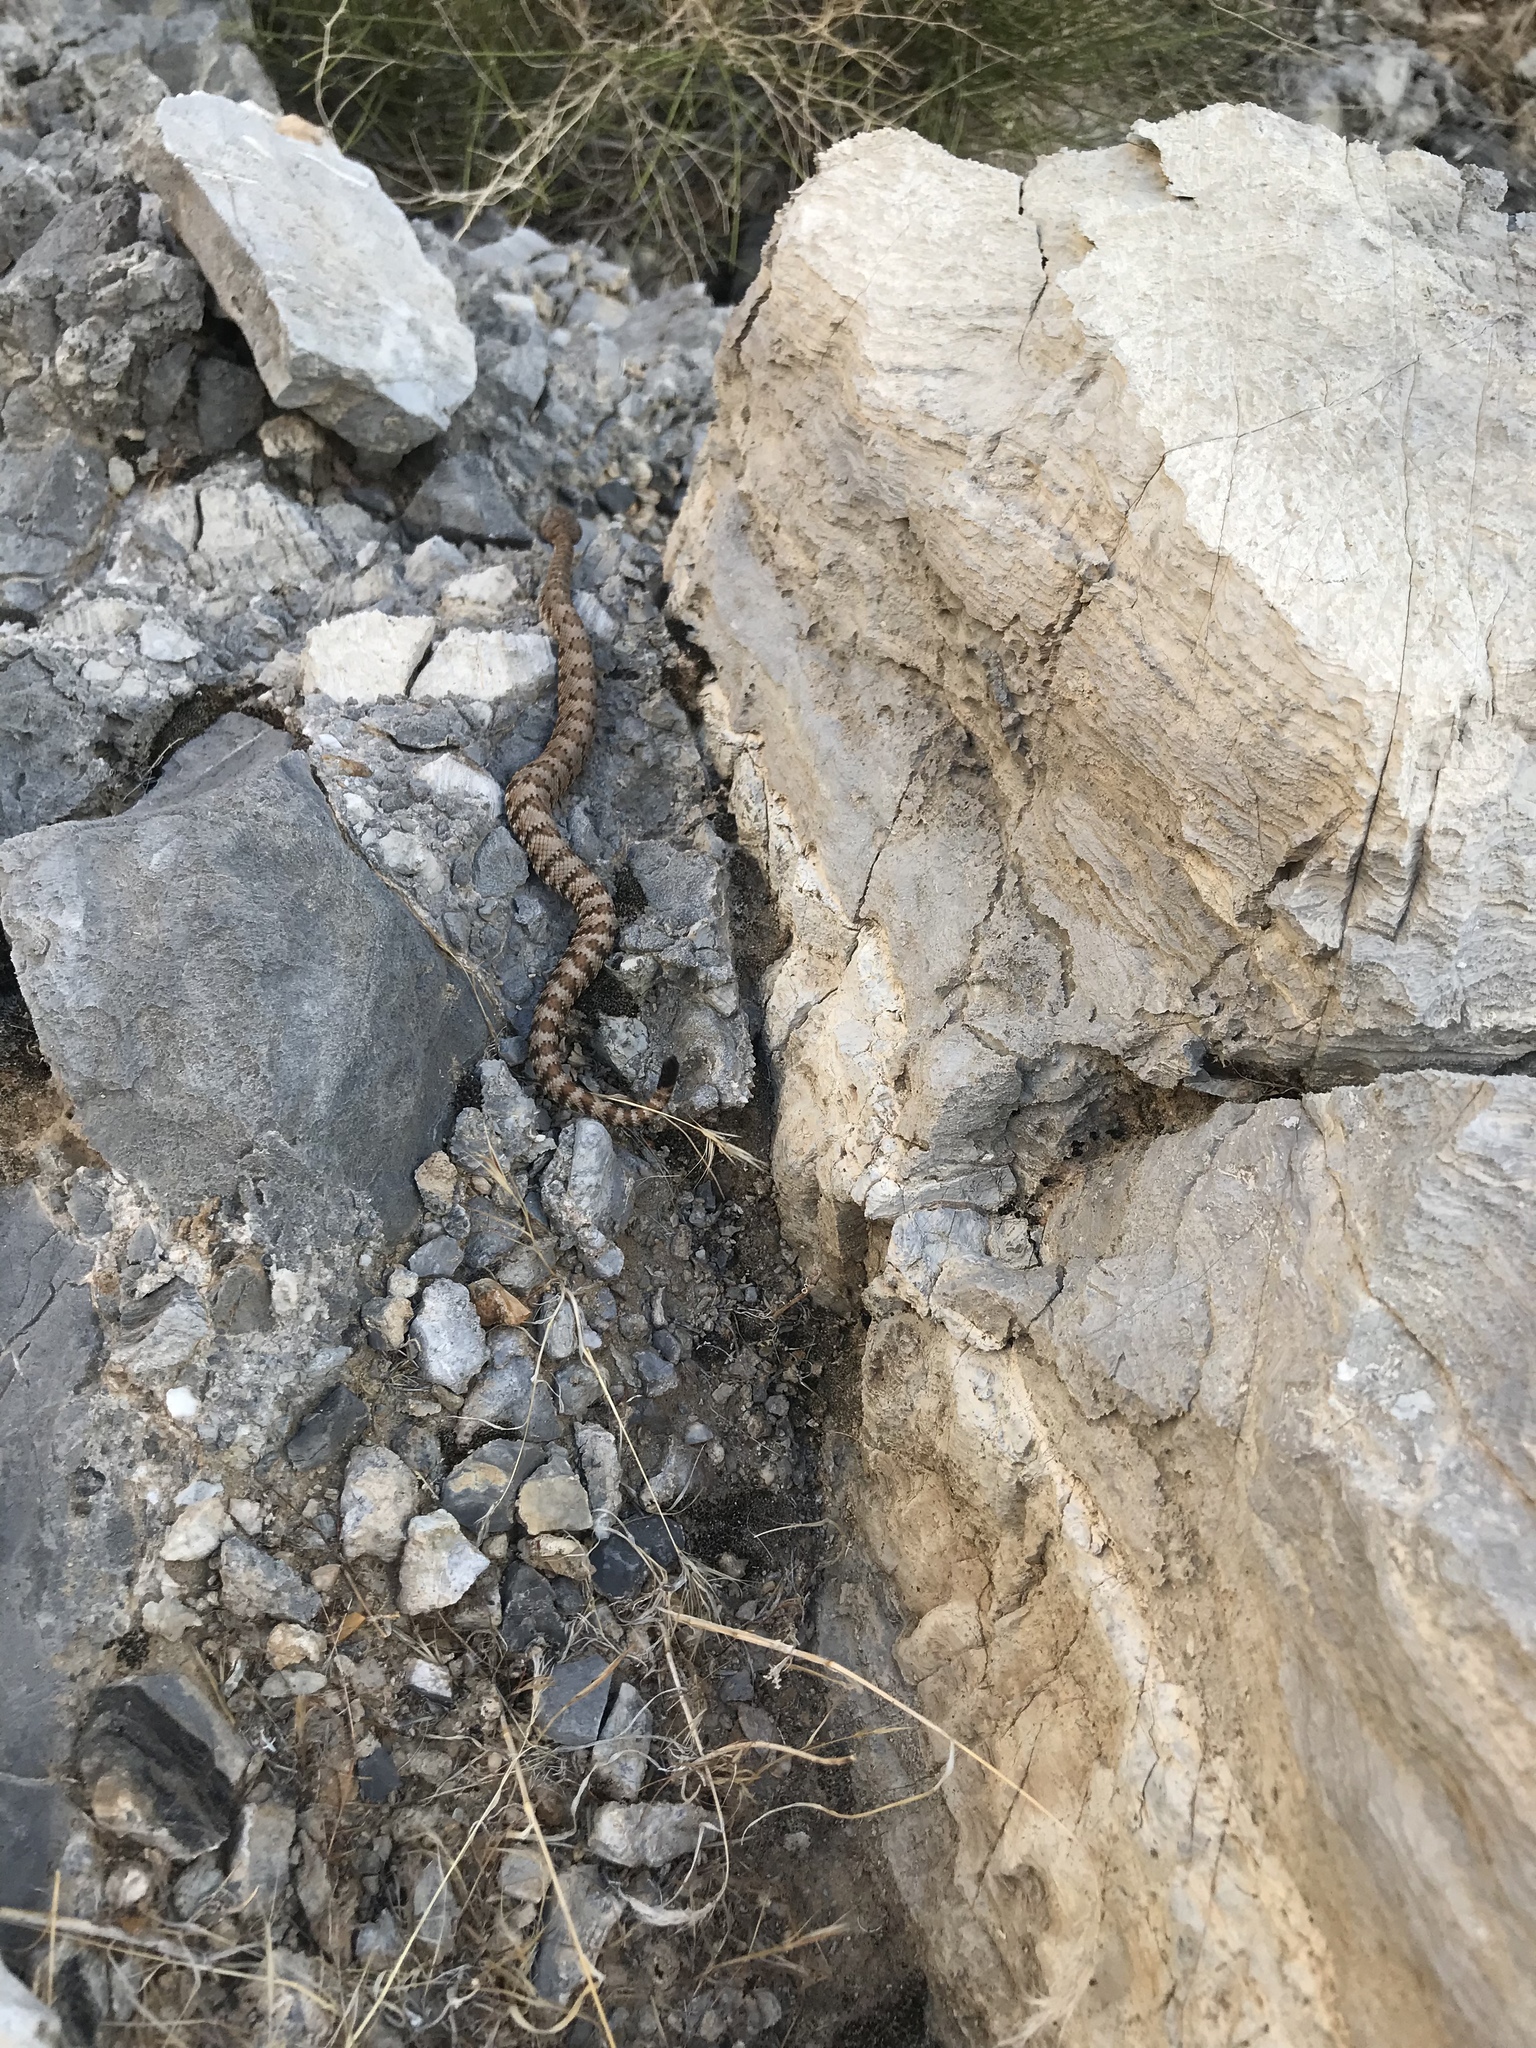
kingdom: Animalia
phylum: Chordata
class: Squamata
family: Viperidae
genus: Crotalus
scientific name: Crotalus stephensi
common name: Panamint rattlesnake
